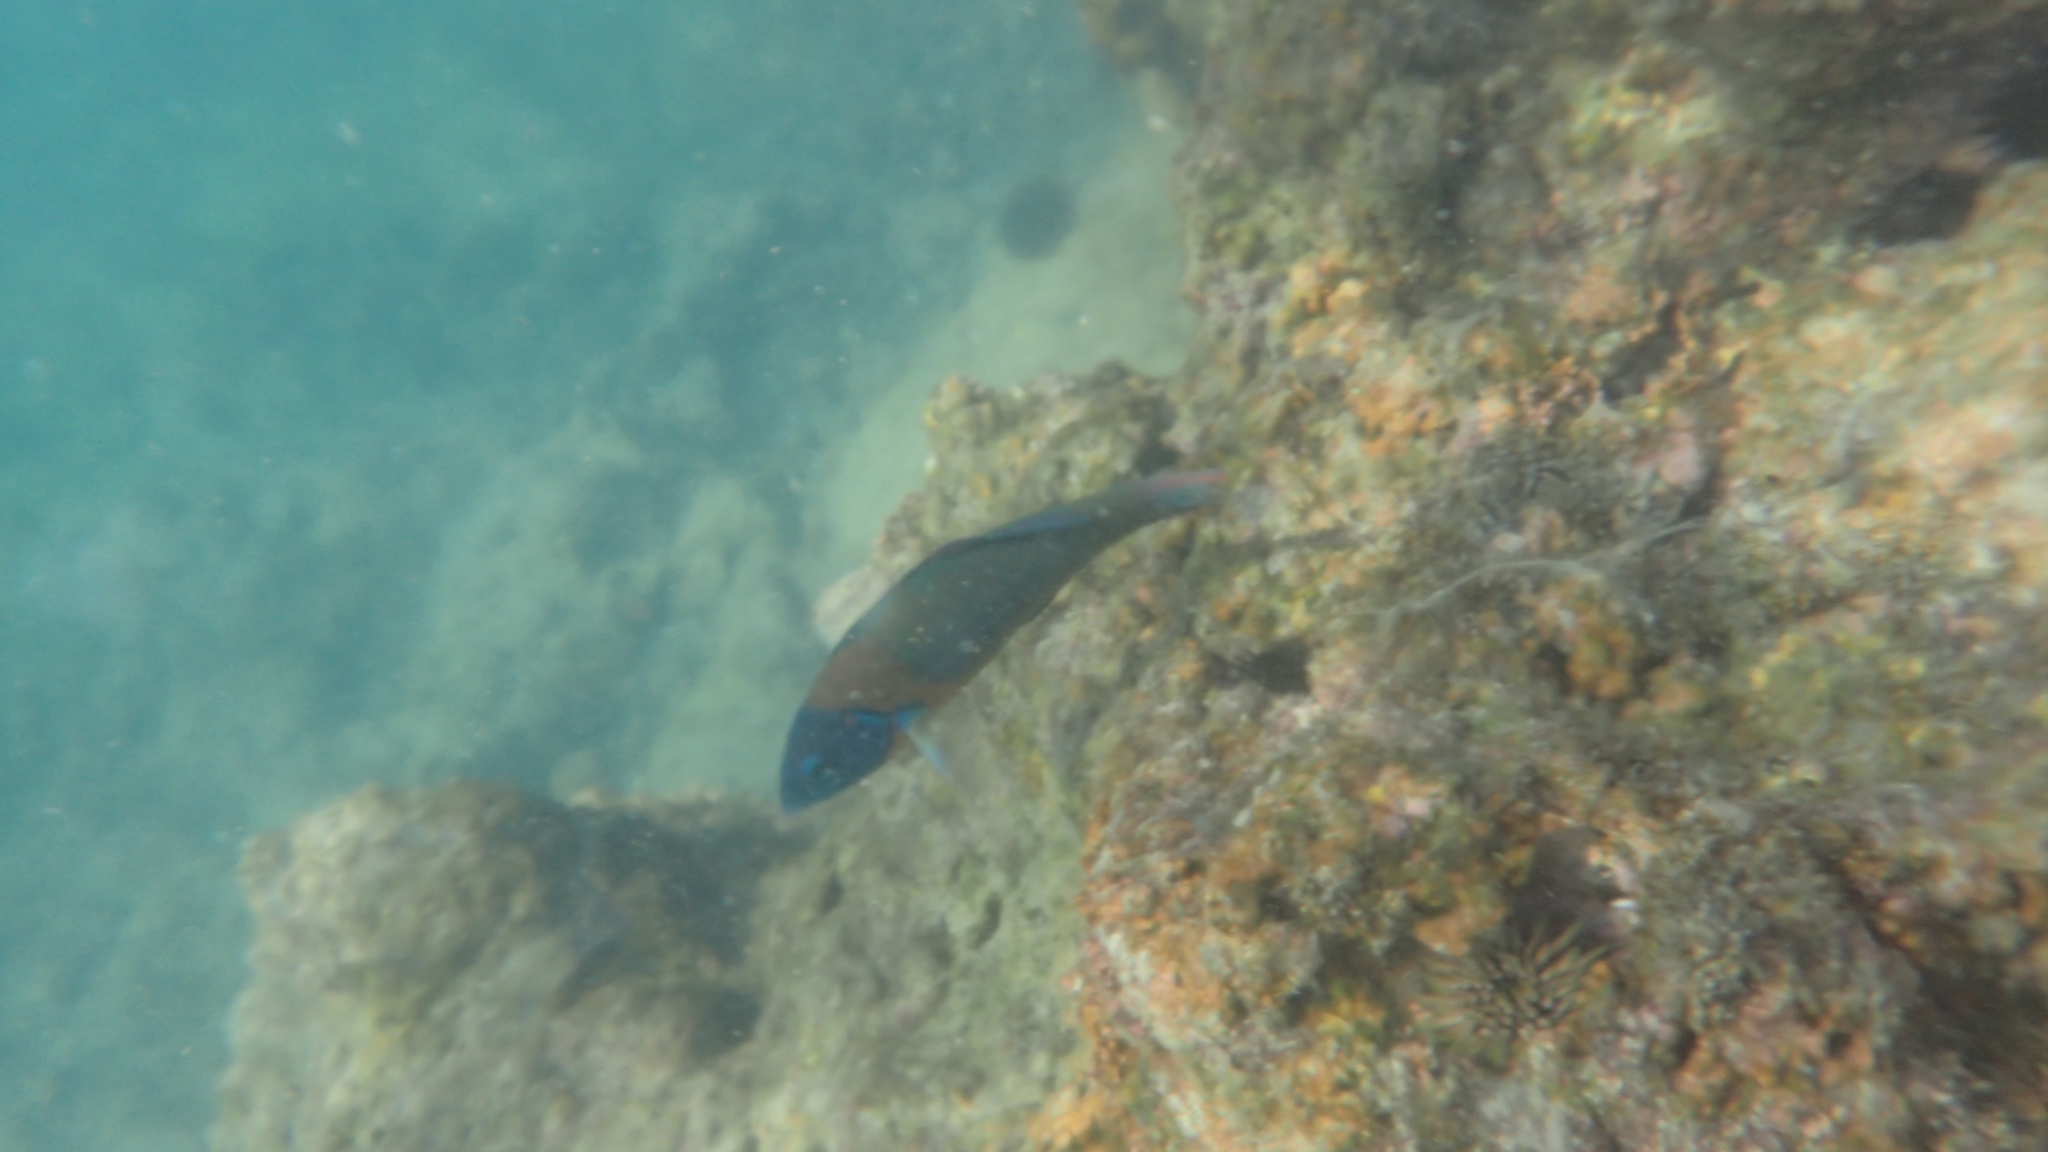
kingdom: Animalia
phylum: Chordata
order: Perciformes
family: Labridae
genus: Thalassoma
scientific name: Thalassoma duperrey
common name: Saddle wrasse
